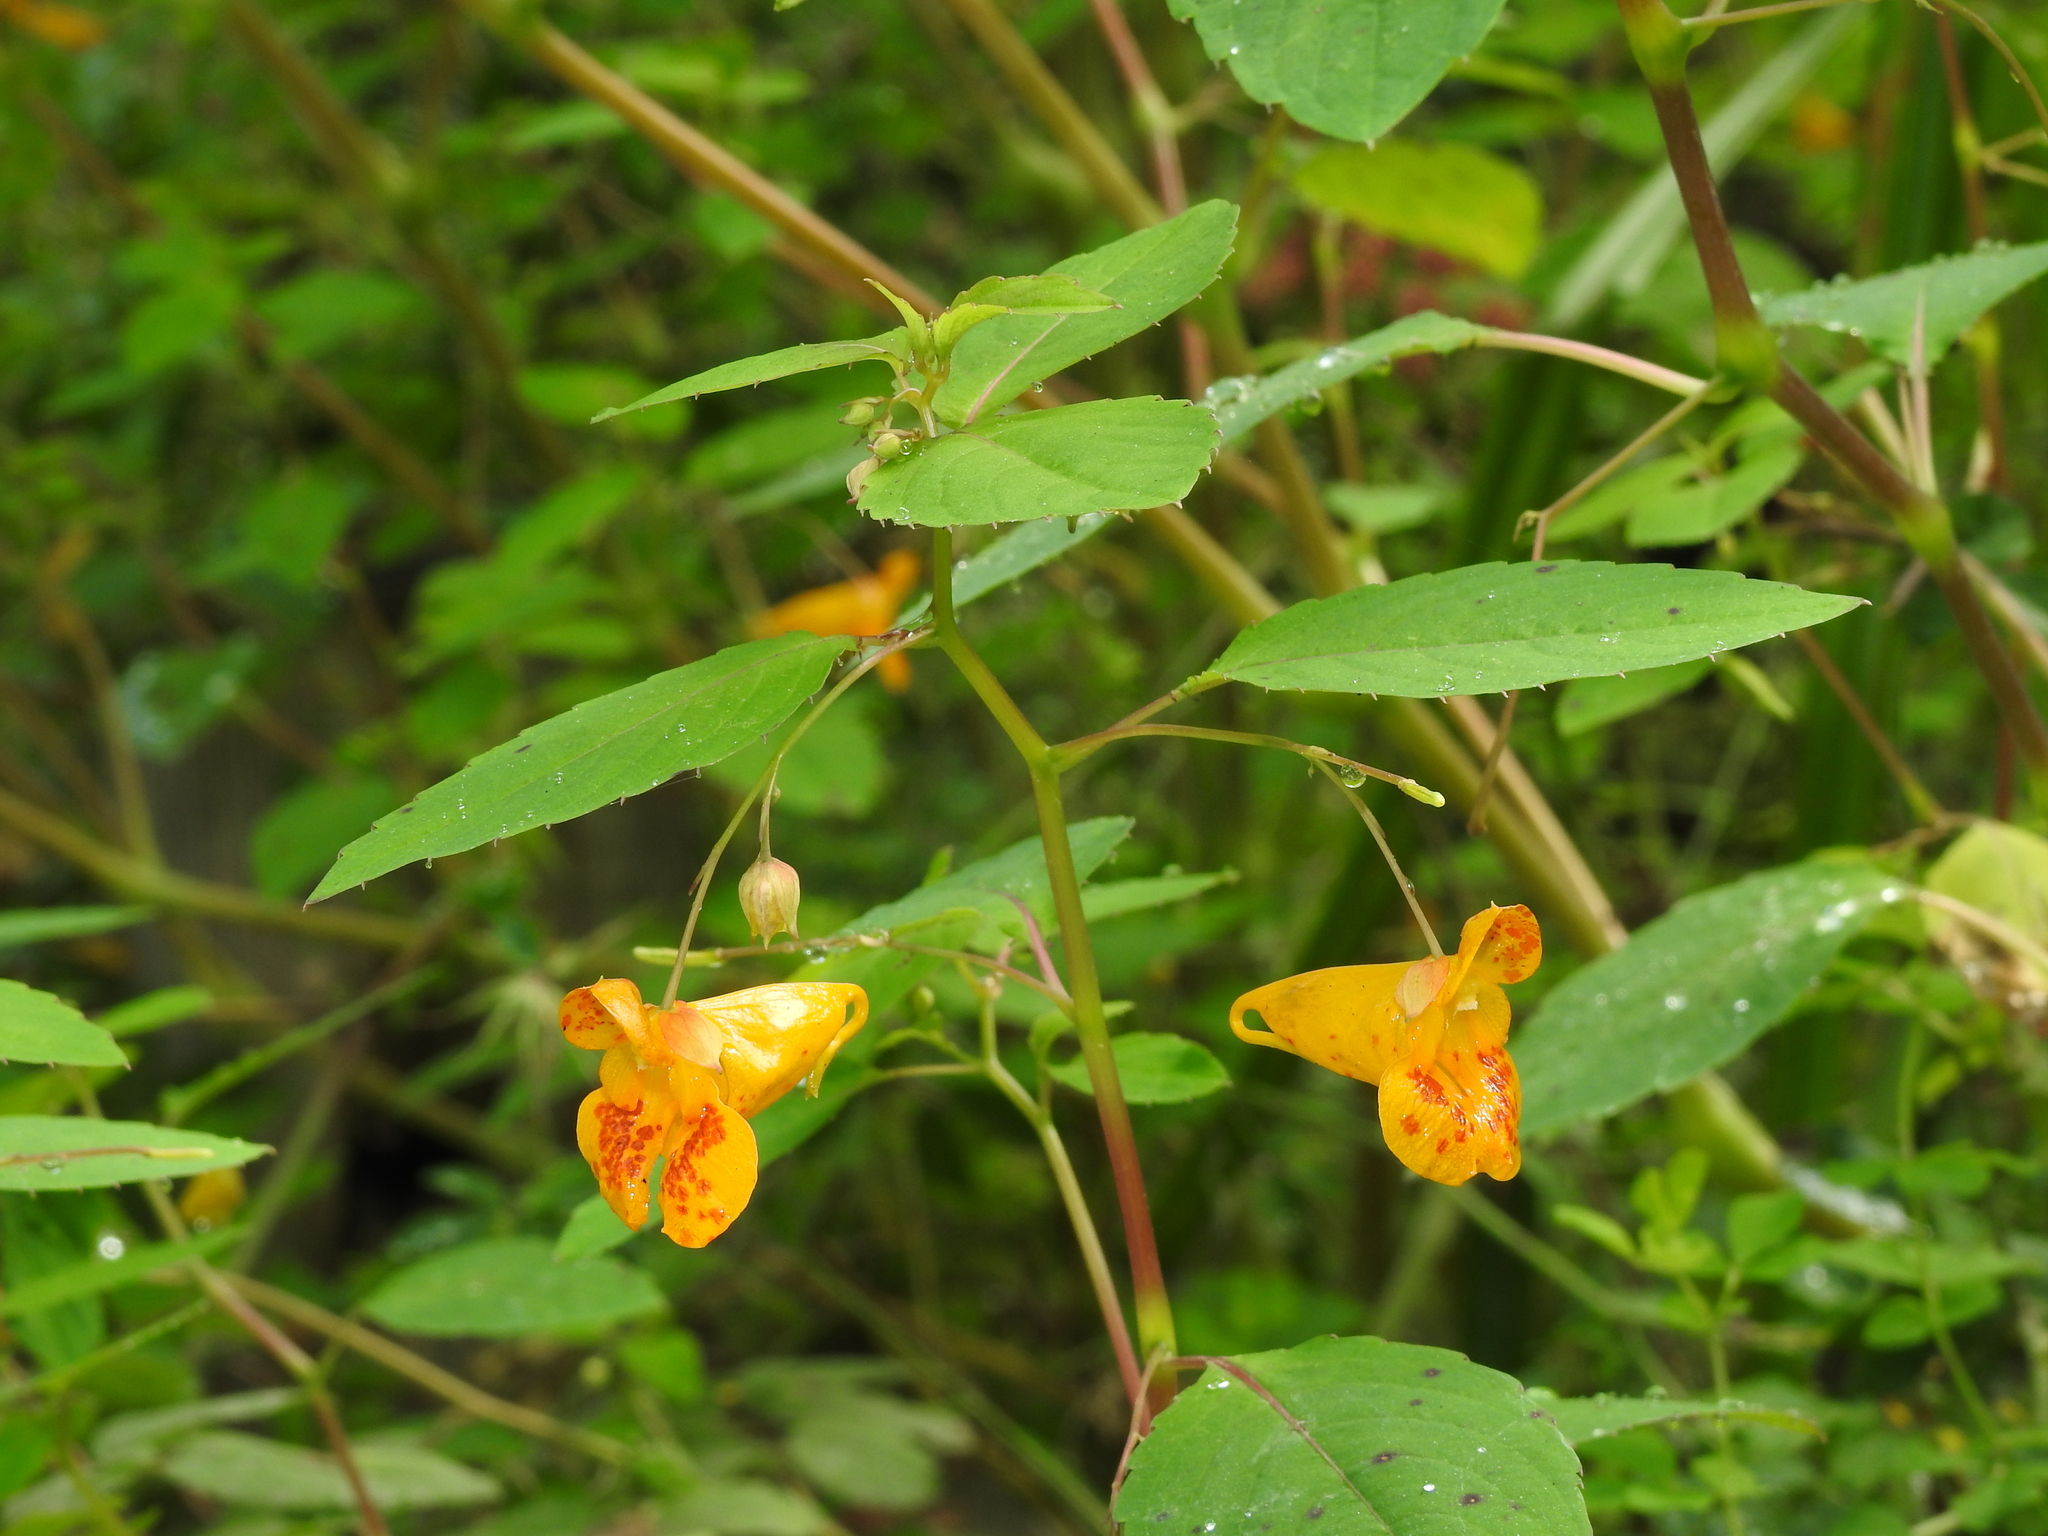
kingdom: Plantae
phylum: Tracheophyta
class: Magnoliopsida
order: Ericales
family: Balsaminaceae
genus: Impatiens
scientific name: Impatiens capensis
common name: Orange balsam
